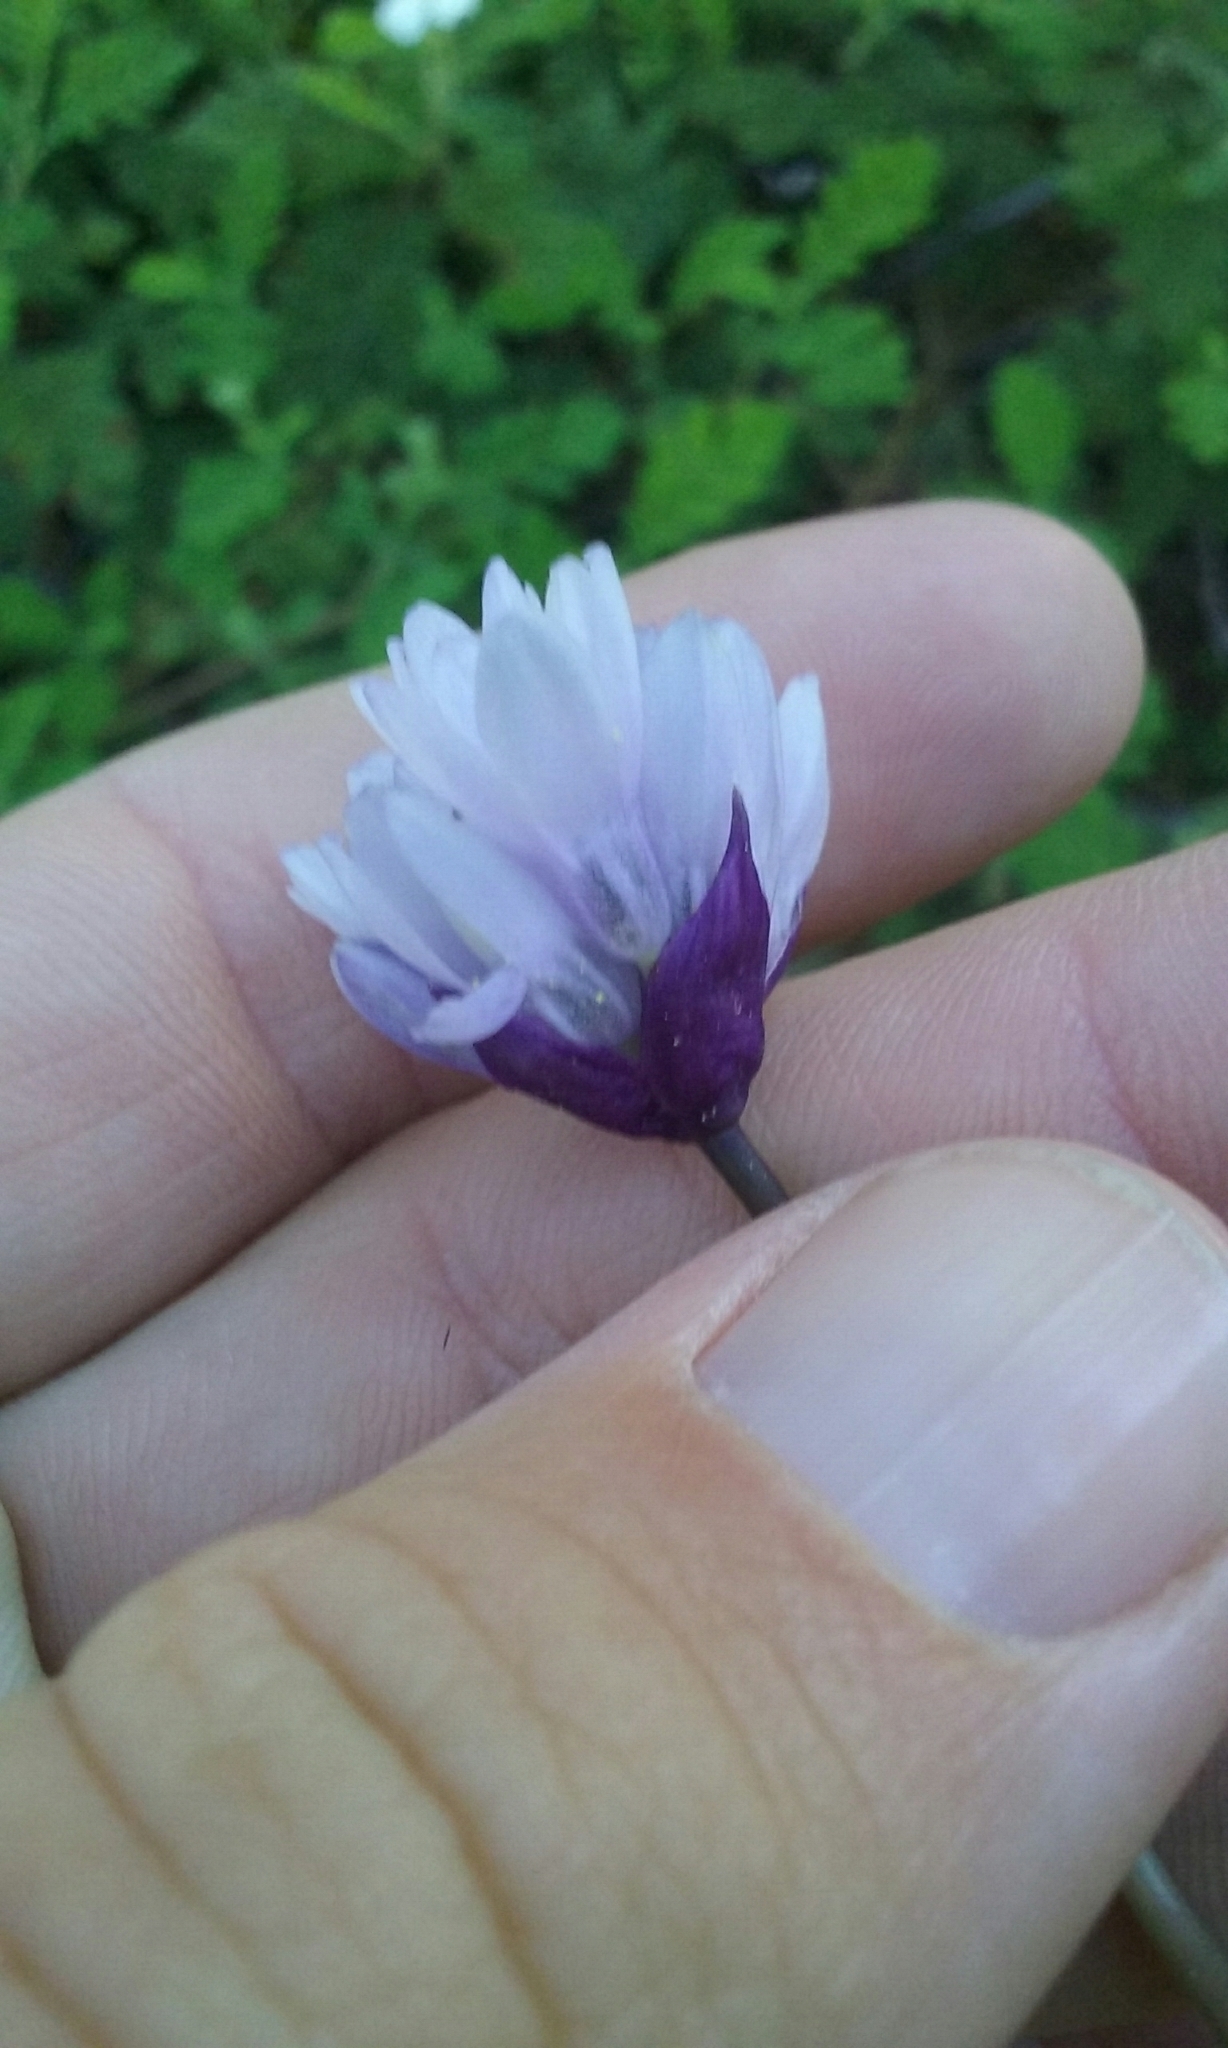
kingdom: Plantae
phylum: Tracheophyta
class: Liliopsida
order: Asparagales
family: Asparagaceae
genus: Dipterostemon
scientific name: Dipterostemon capitatus
